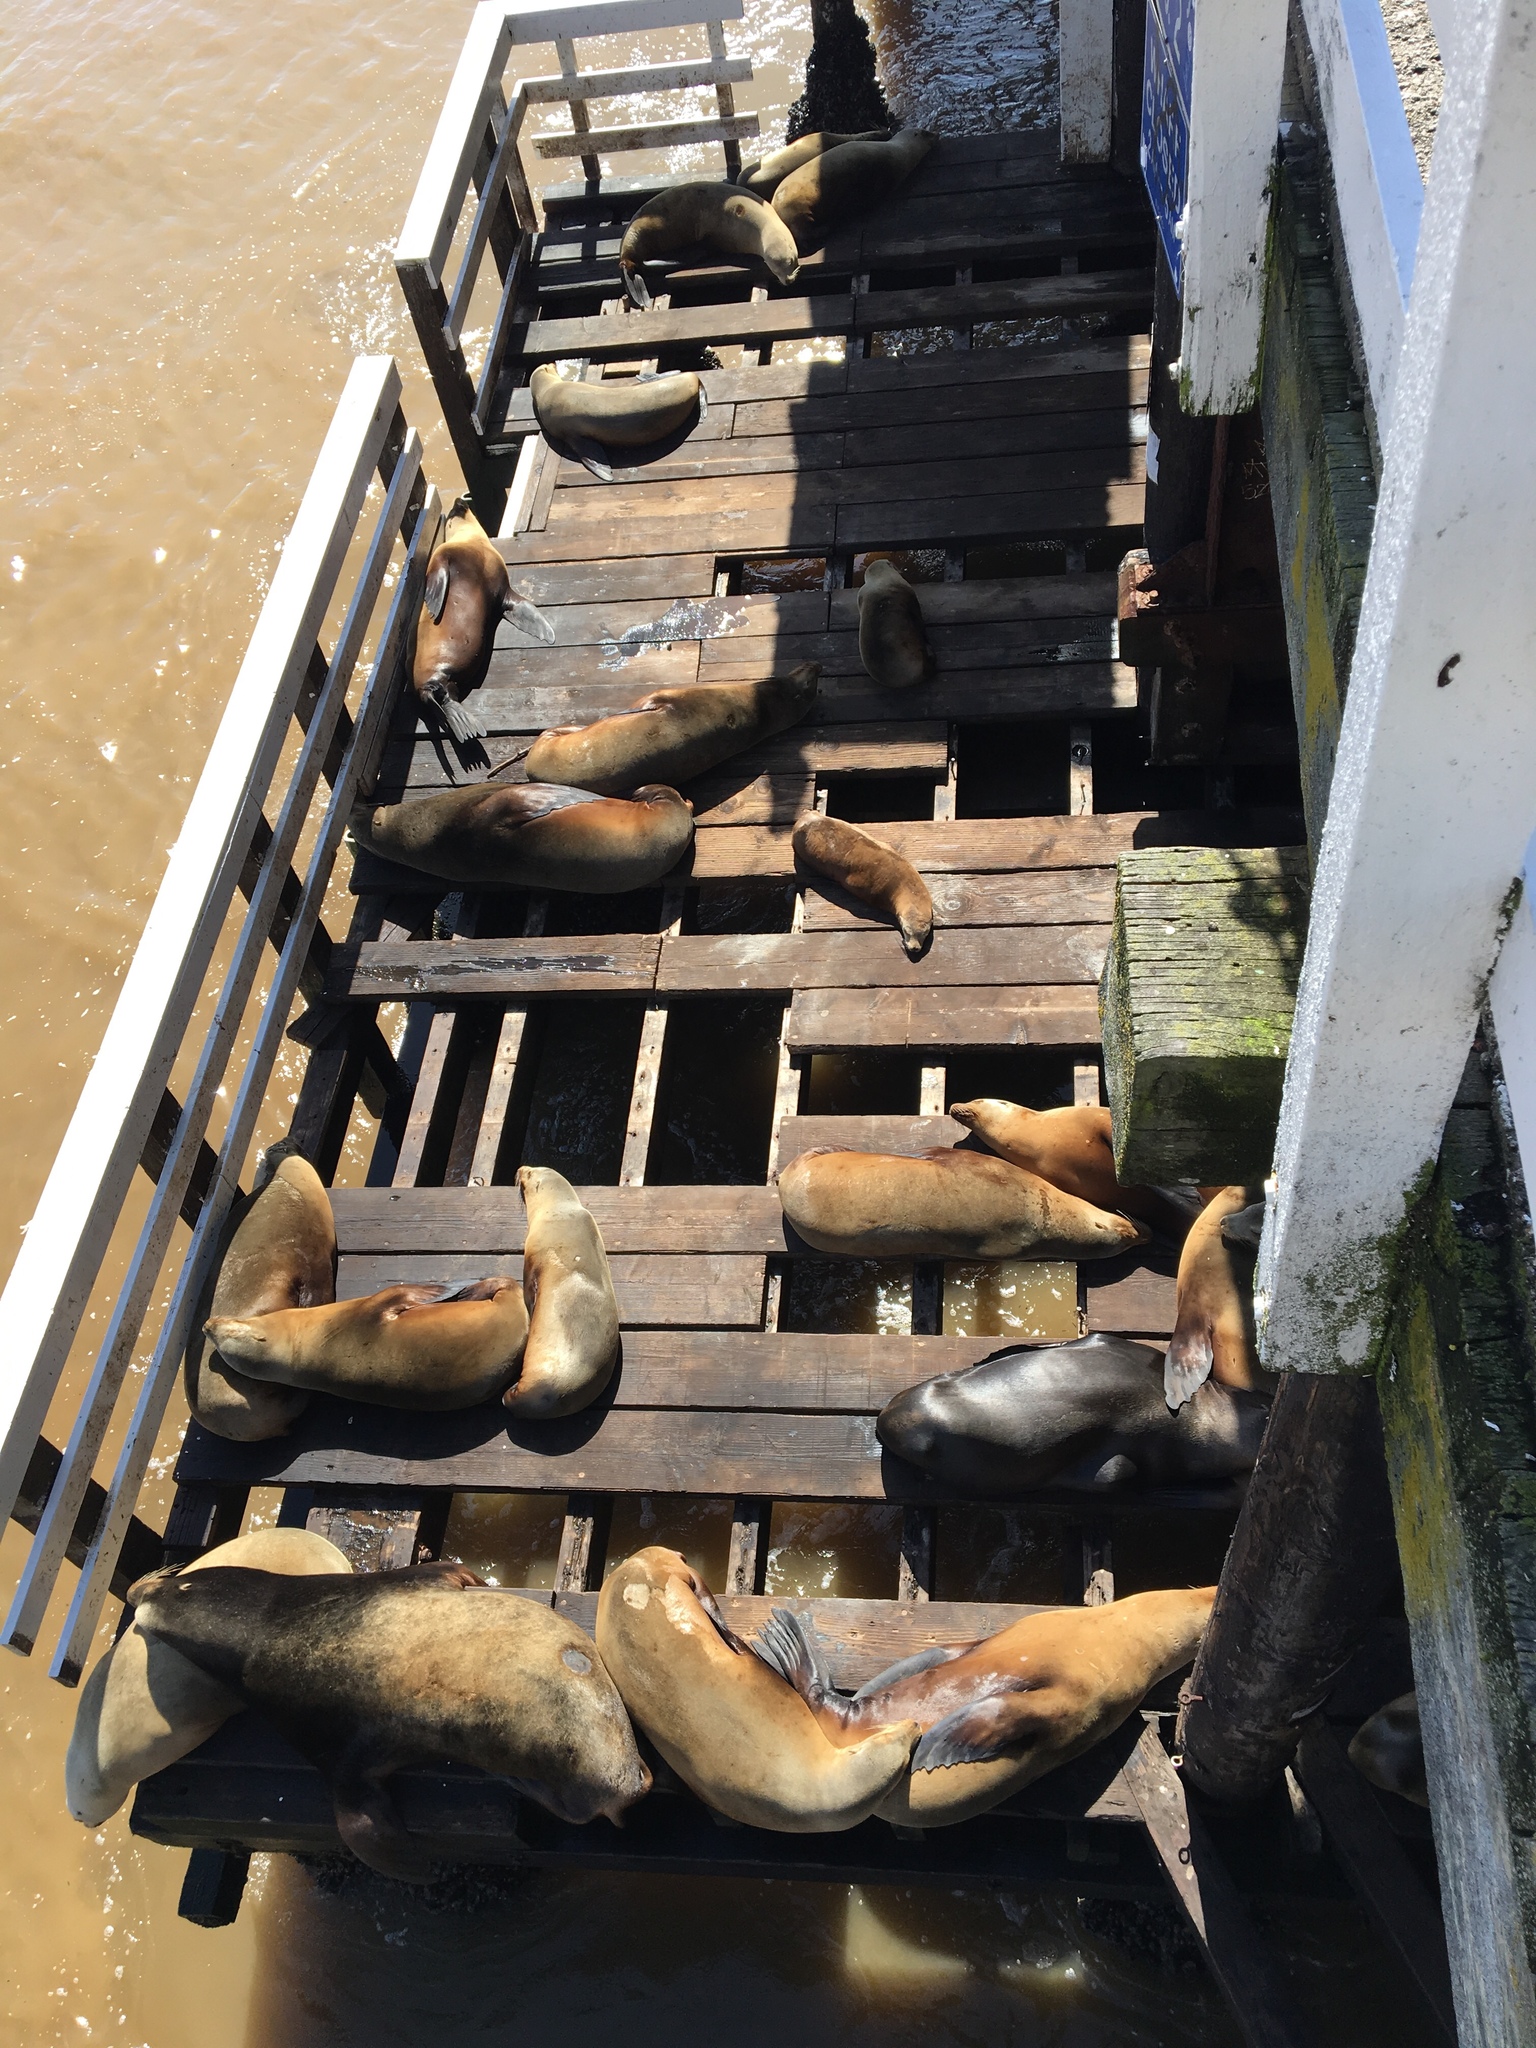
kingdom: Animalia
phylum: Chordata
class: Mammalia
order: Carnivora
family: Otariidae
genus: Zalophus
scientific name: Zalophus californianus
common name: California sea lion
